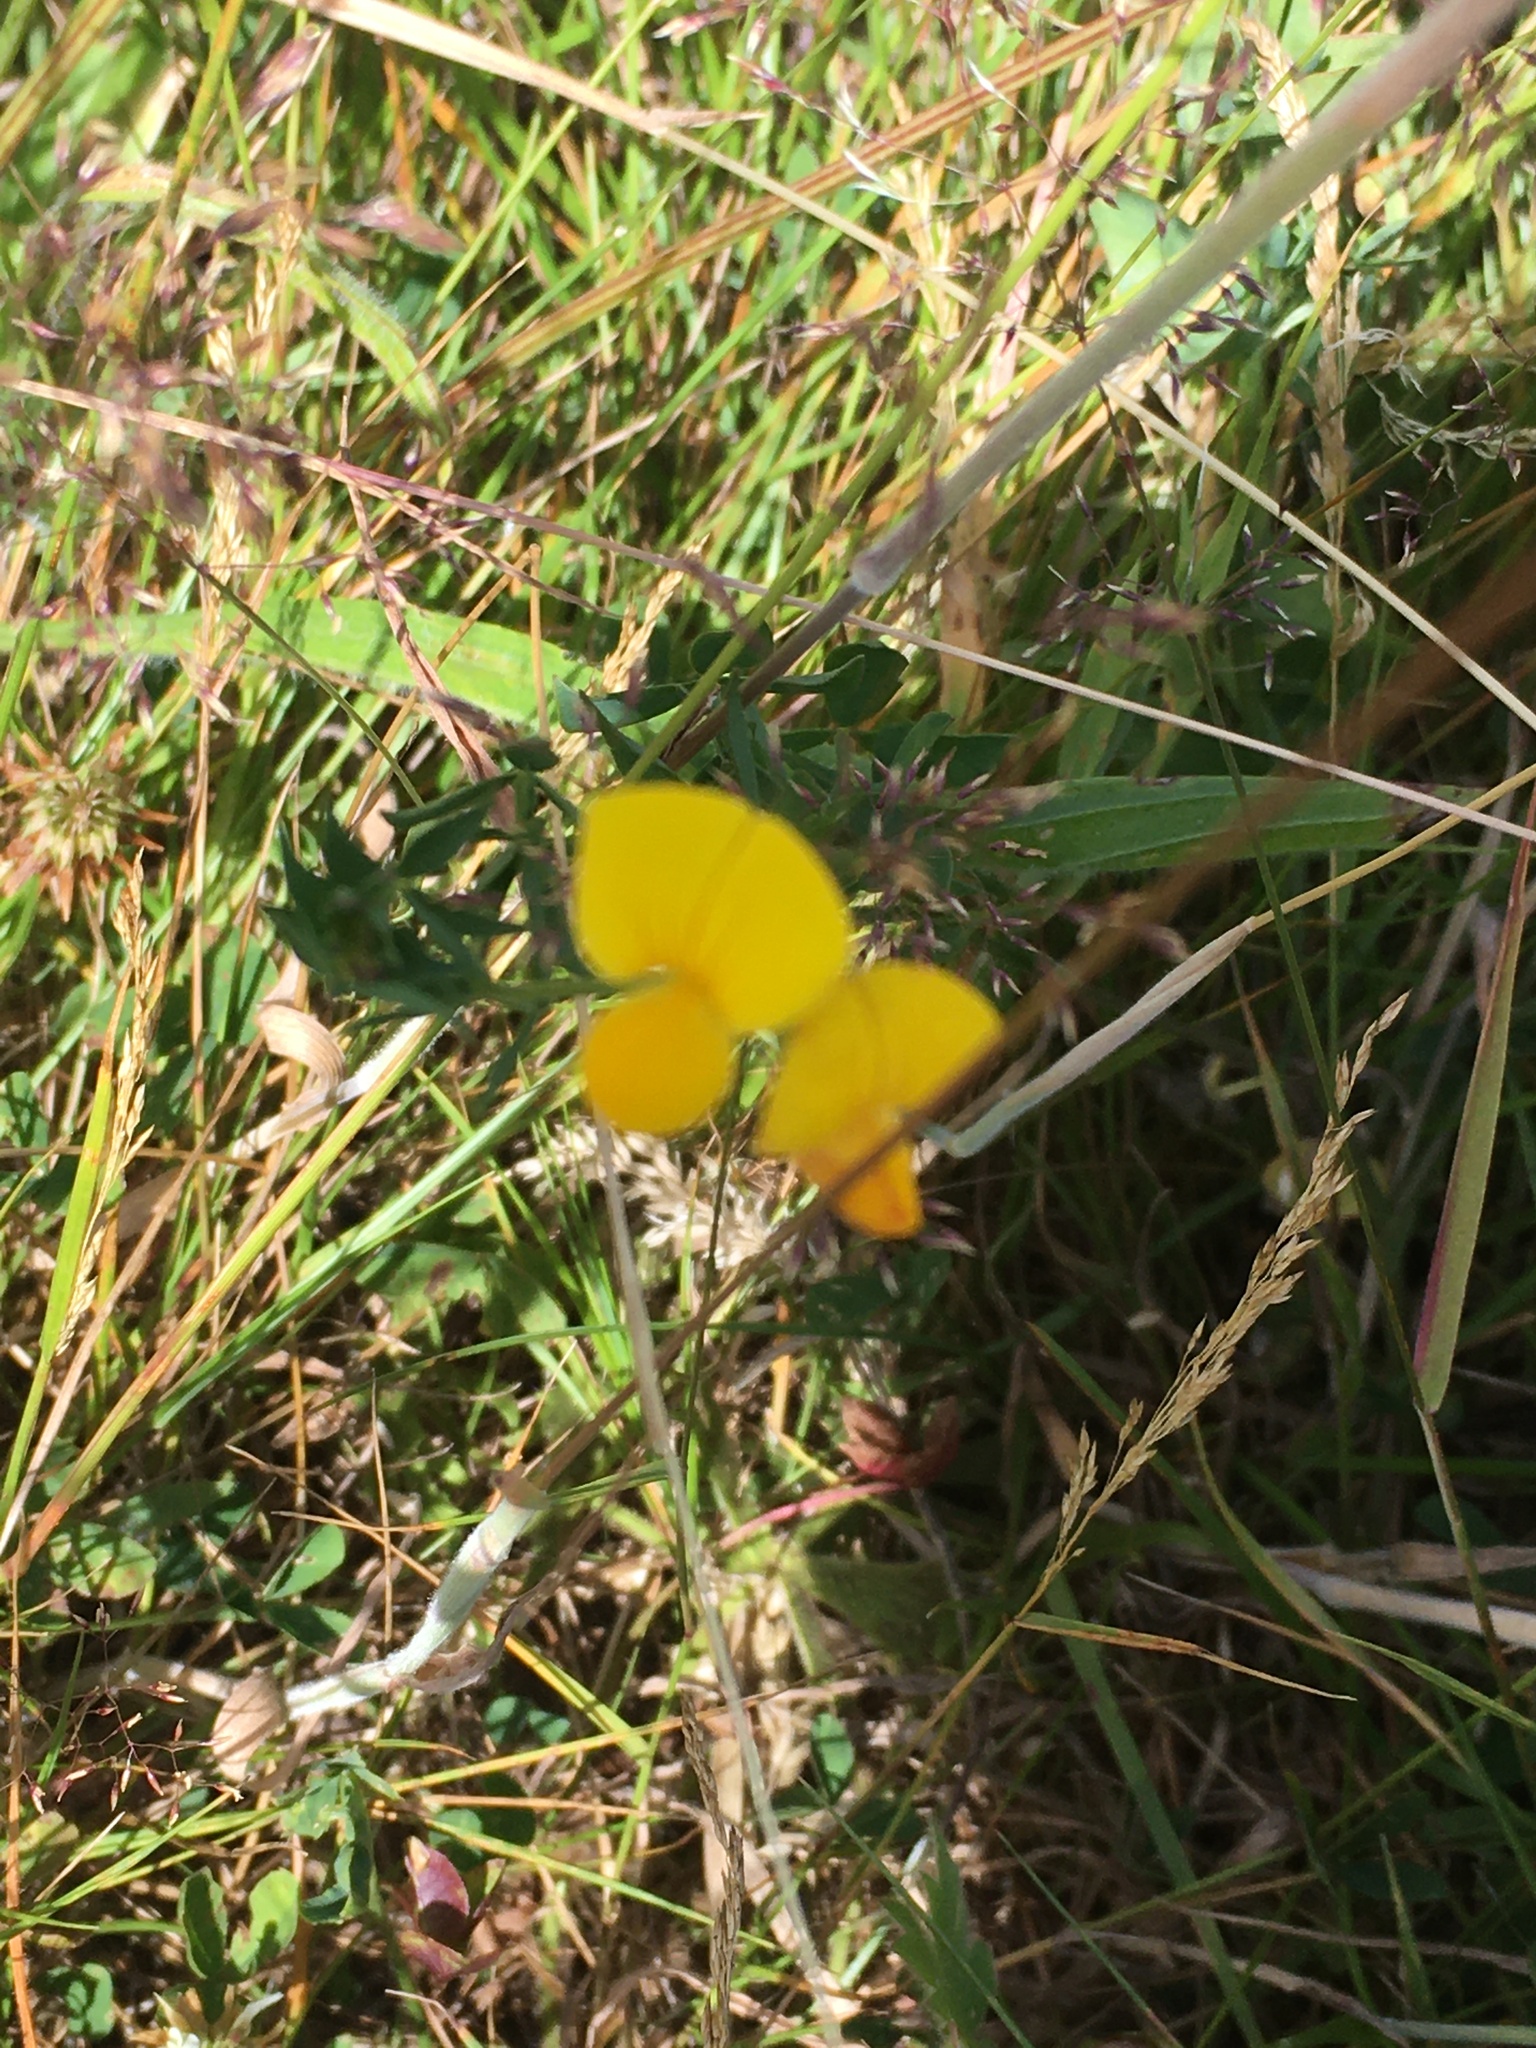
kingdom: Plantae
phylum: Tracheophyta
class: Magnoliopsida
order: Fabales
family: Fabaceae
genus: Lotus
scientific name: Lotus corniculatus
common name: Common bird's-foot-trefoil
